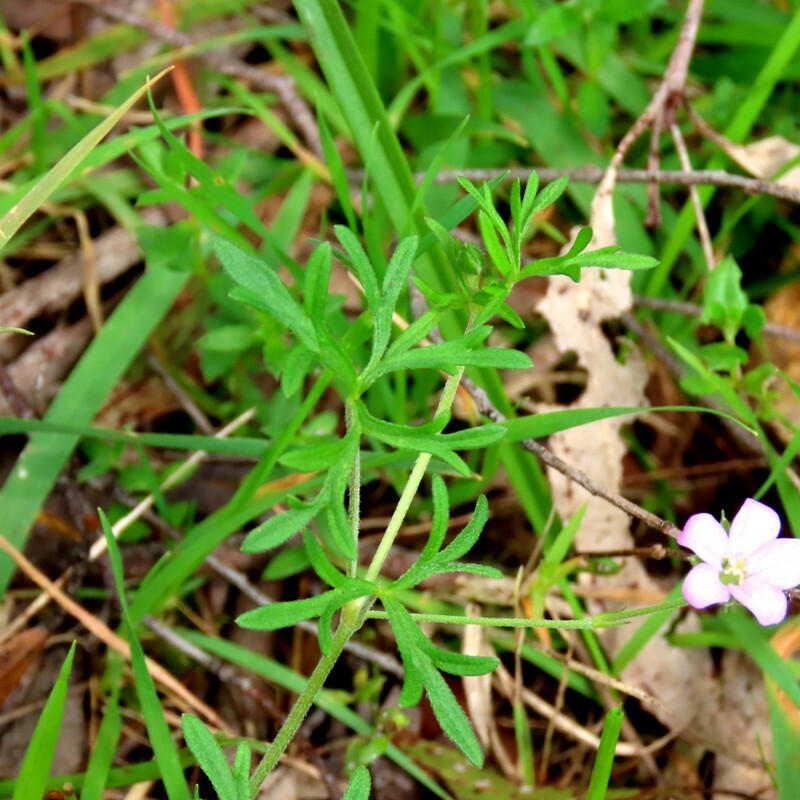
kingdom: Plantae
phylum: Tracheophyta
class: Magnoliopsida
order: Geraniales
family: Geraniaceae
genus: Geranium
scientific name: Geranium retrorsum
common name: New zealand geranium
